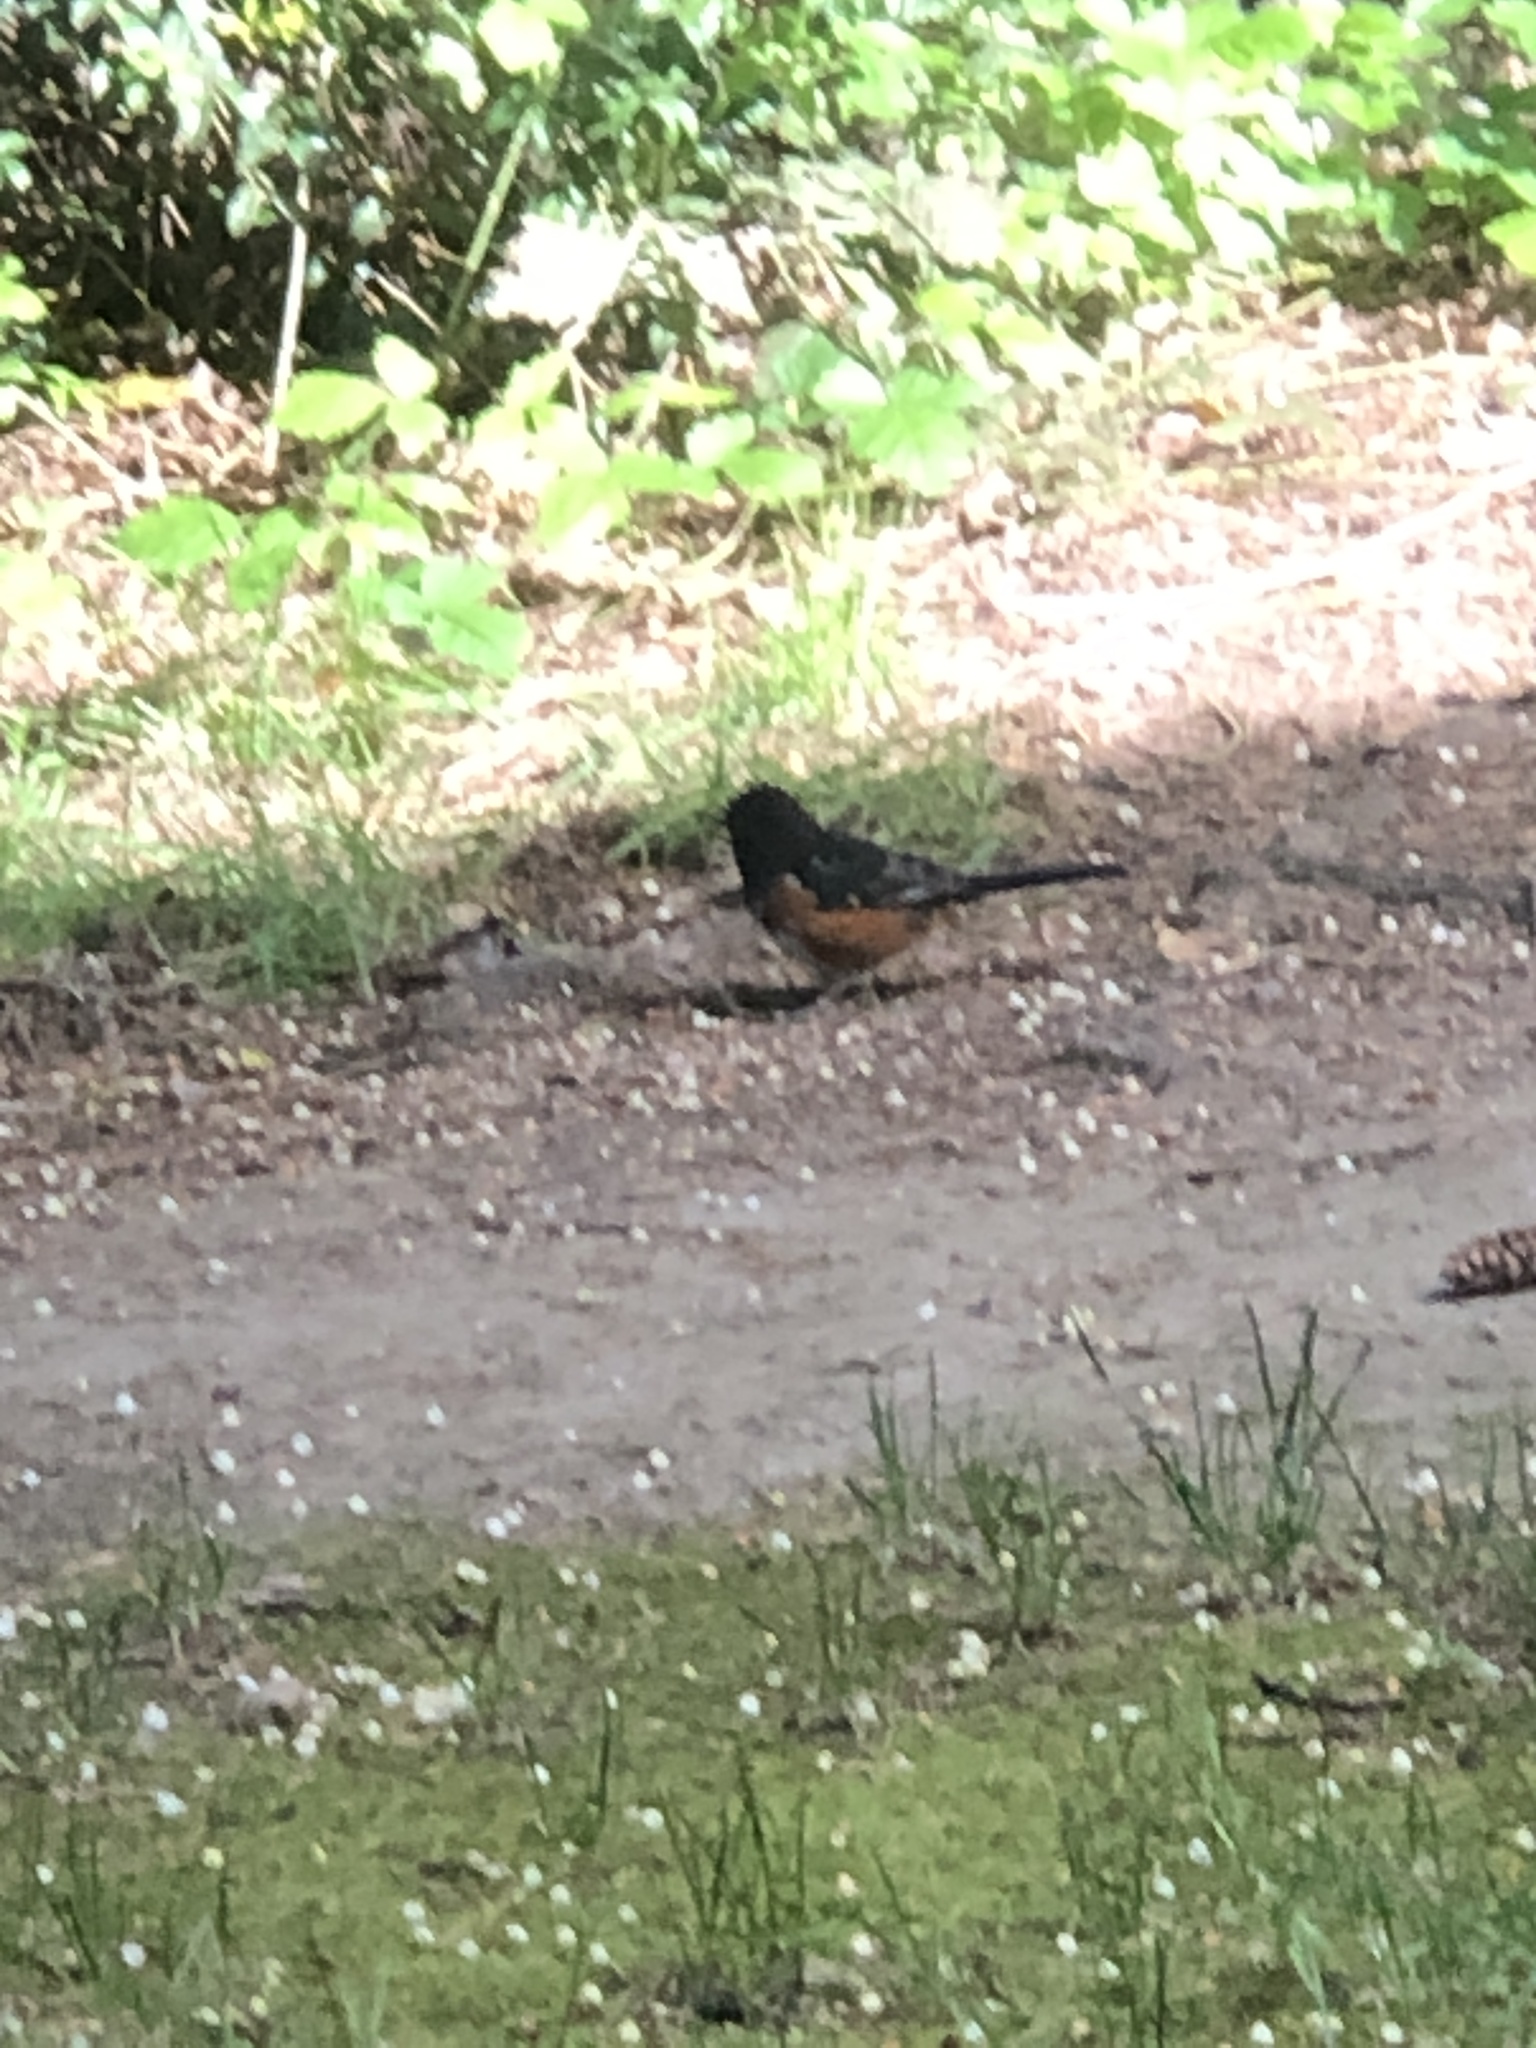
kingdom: Animalia
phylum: Chordata
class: Aves
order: Passeriformes
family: Passerellidae
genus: Pipilo
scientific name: Pipilo maculatus
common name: Spotted towhee
